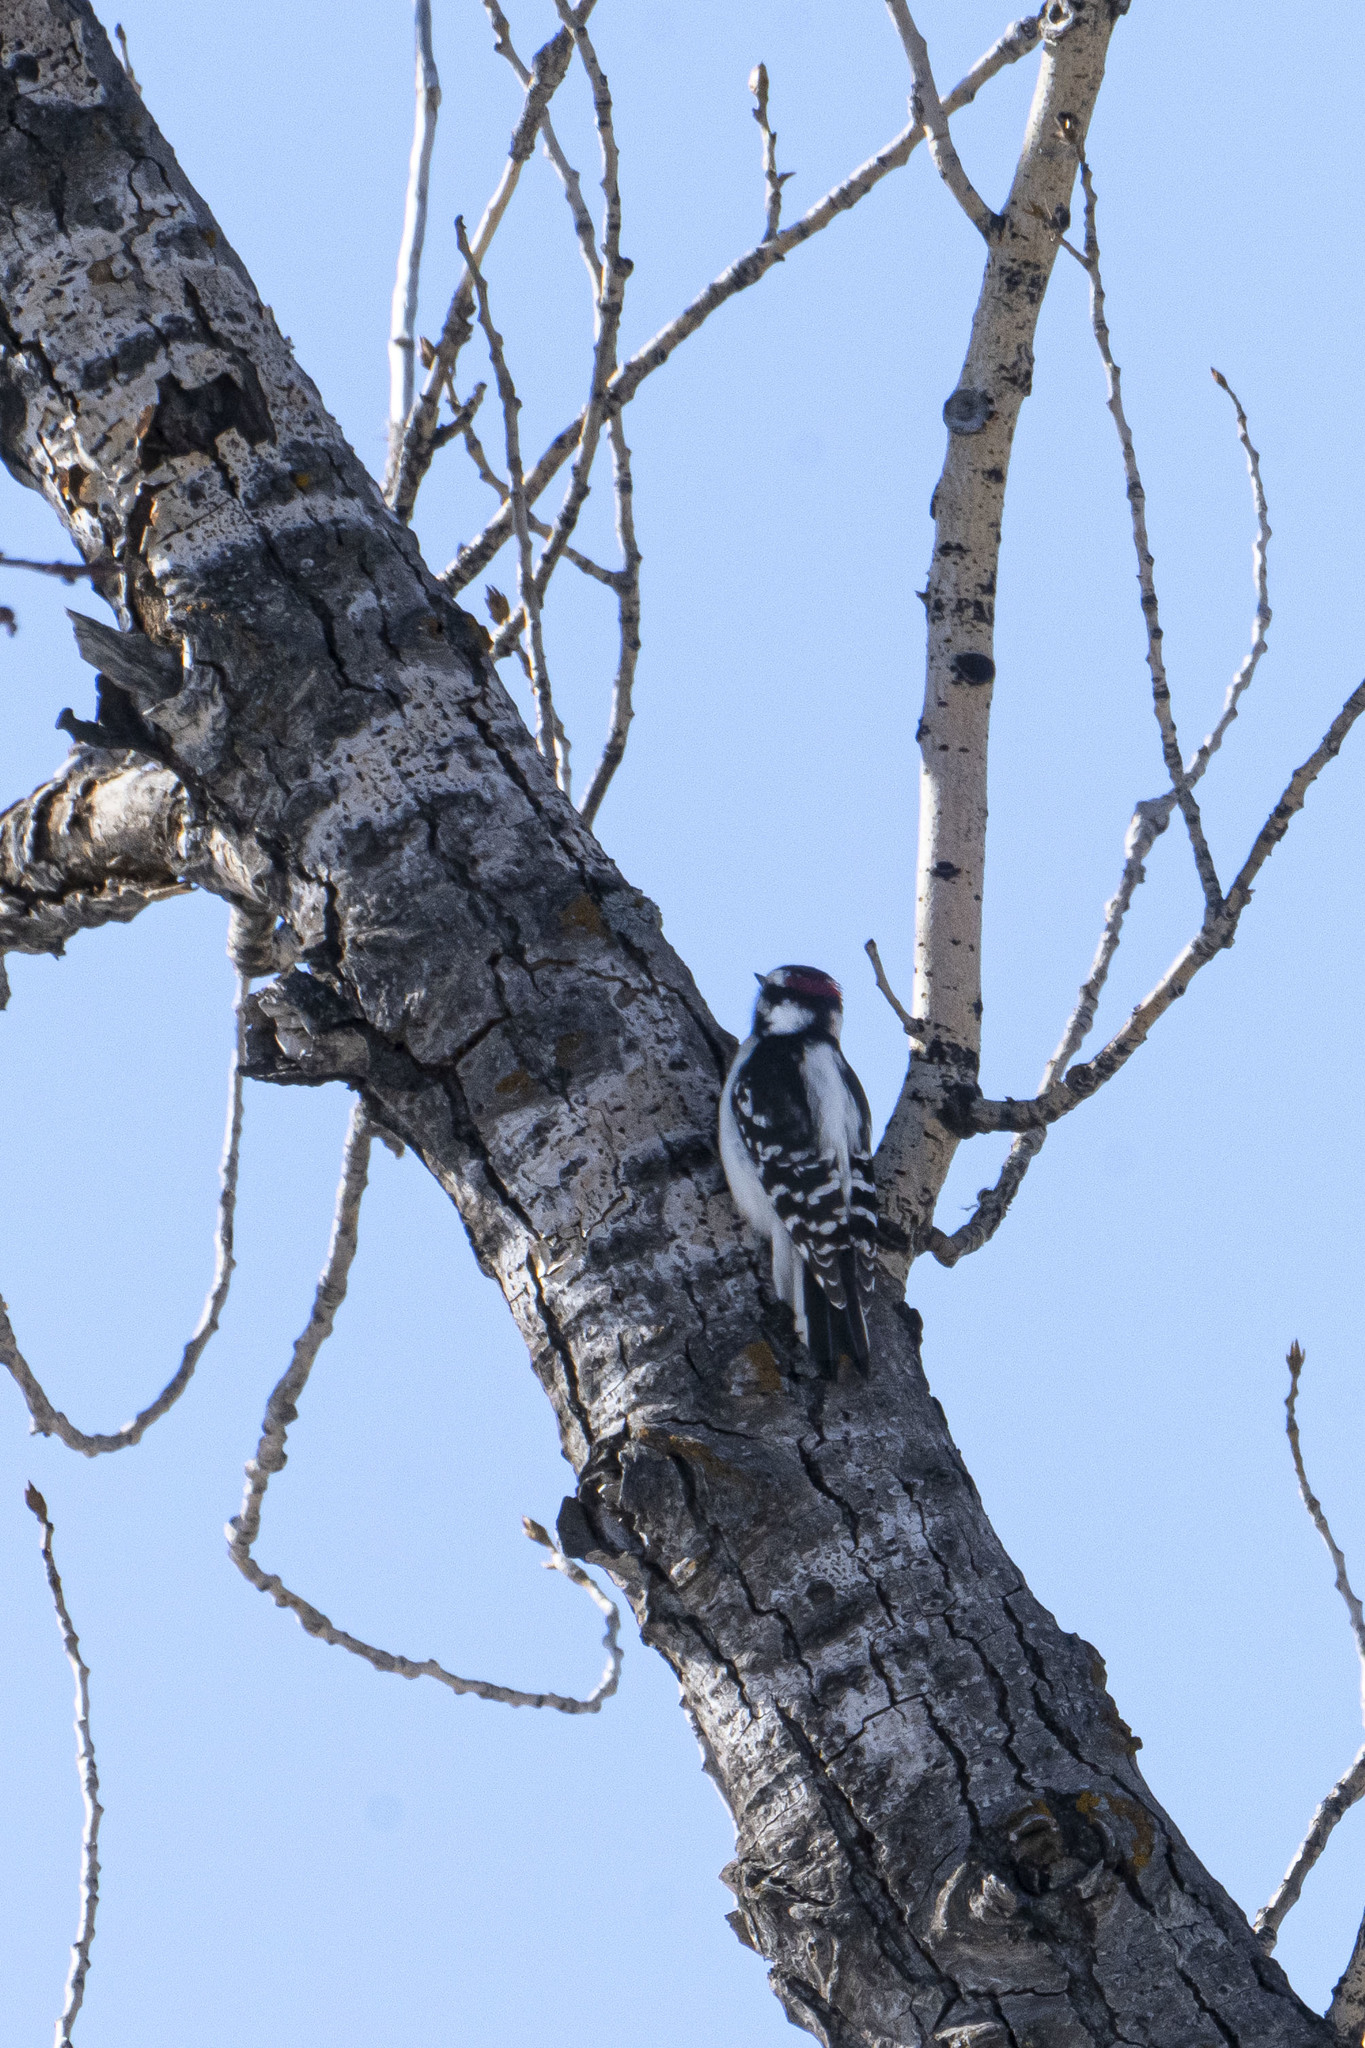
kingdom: Animalia
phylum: Chordata
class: Aves
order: Piciformes
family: Picidae
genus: Dryobates
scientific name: Dryobates pubescens
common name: Downy woodpecker
